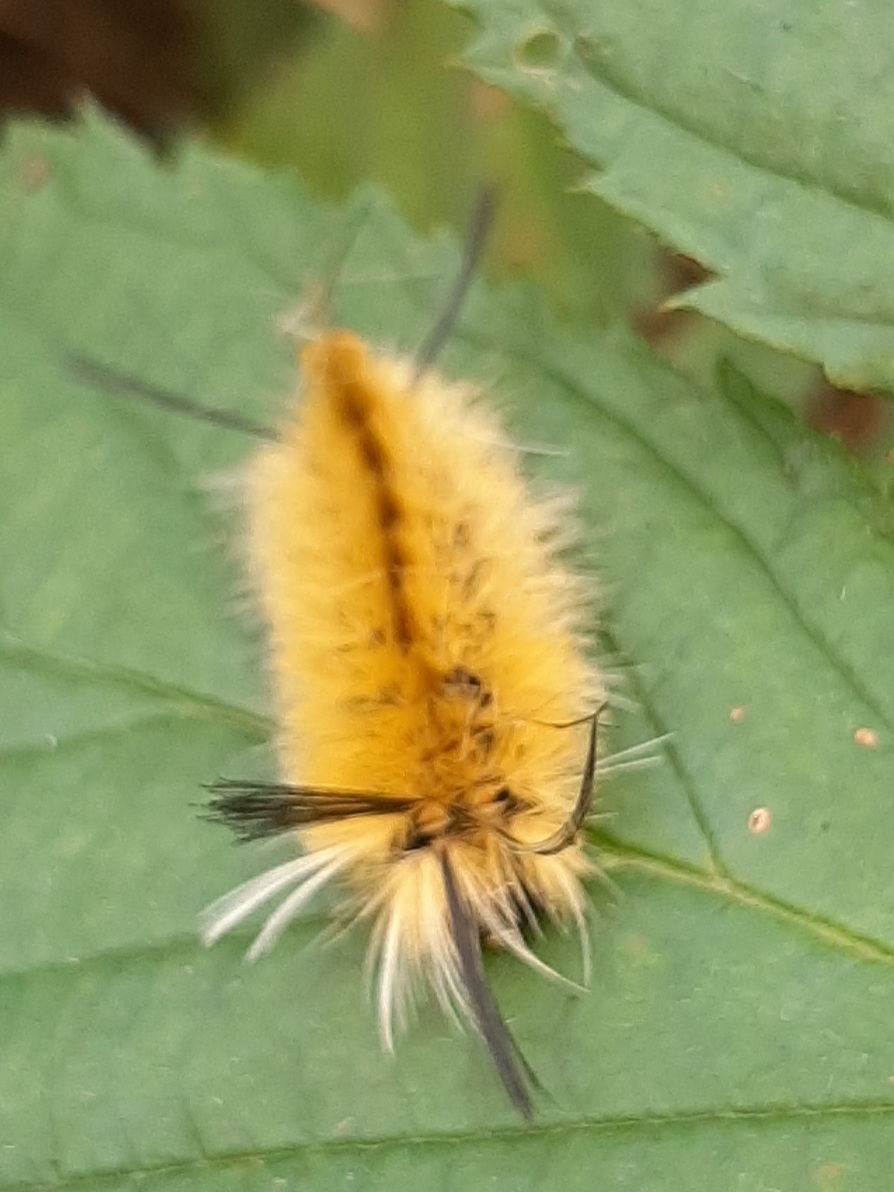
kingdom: Animalia
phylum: Arthropoda
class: Insecta
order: Lepidoptera
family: Erebidae
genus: Halysidota
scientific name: Halysidota tessellaris
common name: Banded tussock moth
